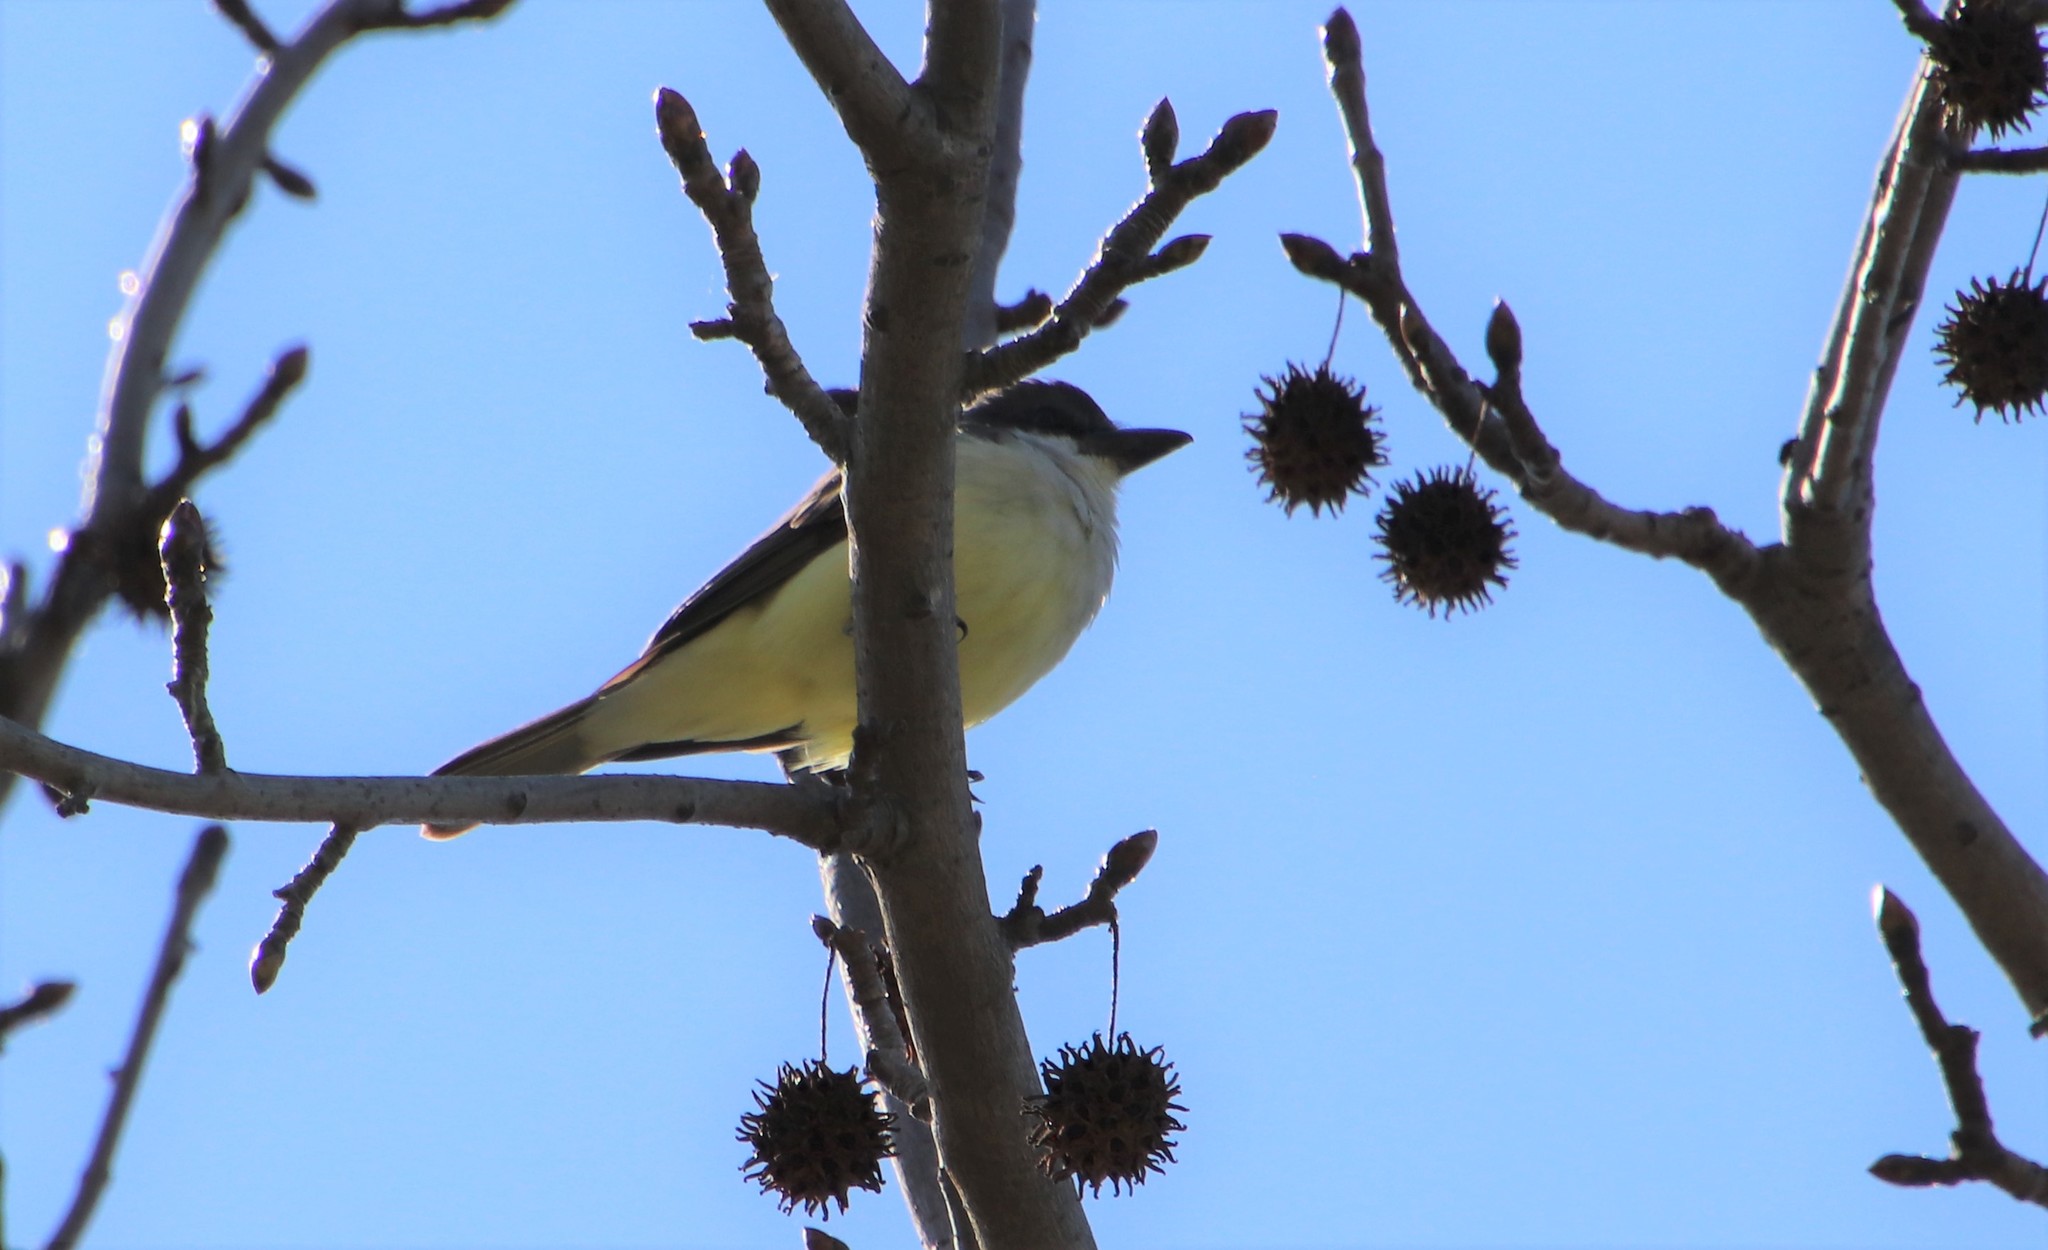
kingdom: Animalia
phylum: Chordata
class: Aves
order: Passeriformes
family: Tyrannidae
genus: Tyrannus
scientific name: Tyrannus crassirostris
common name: Thick-billed kingbird
